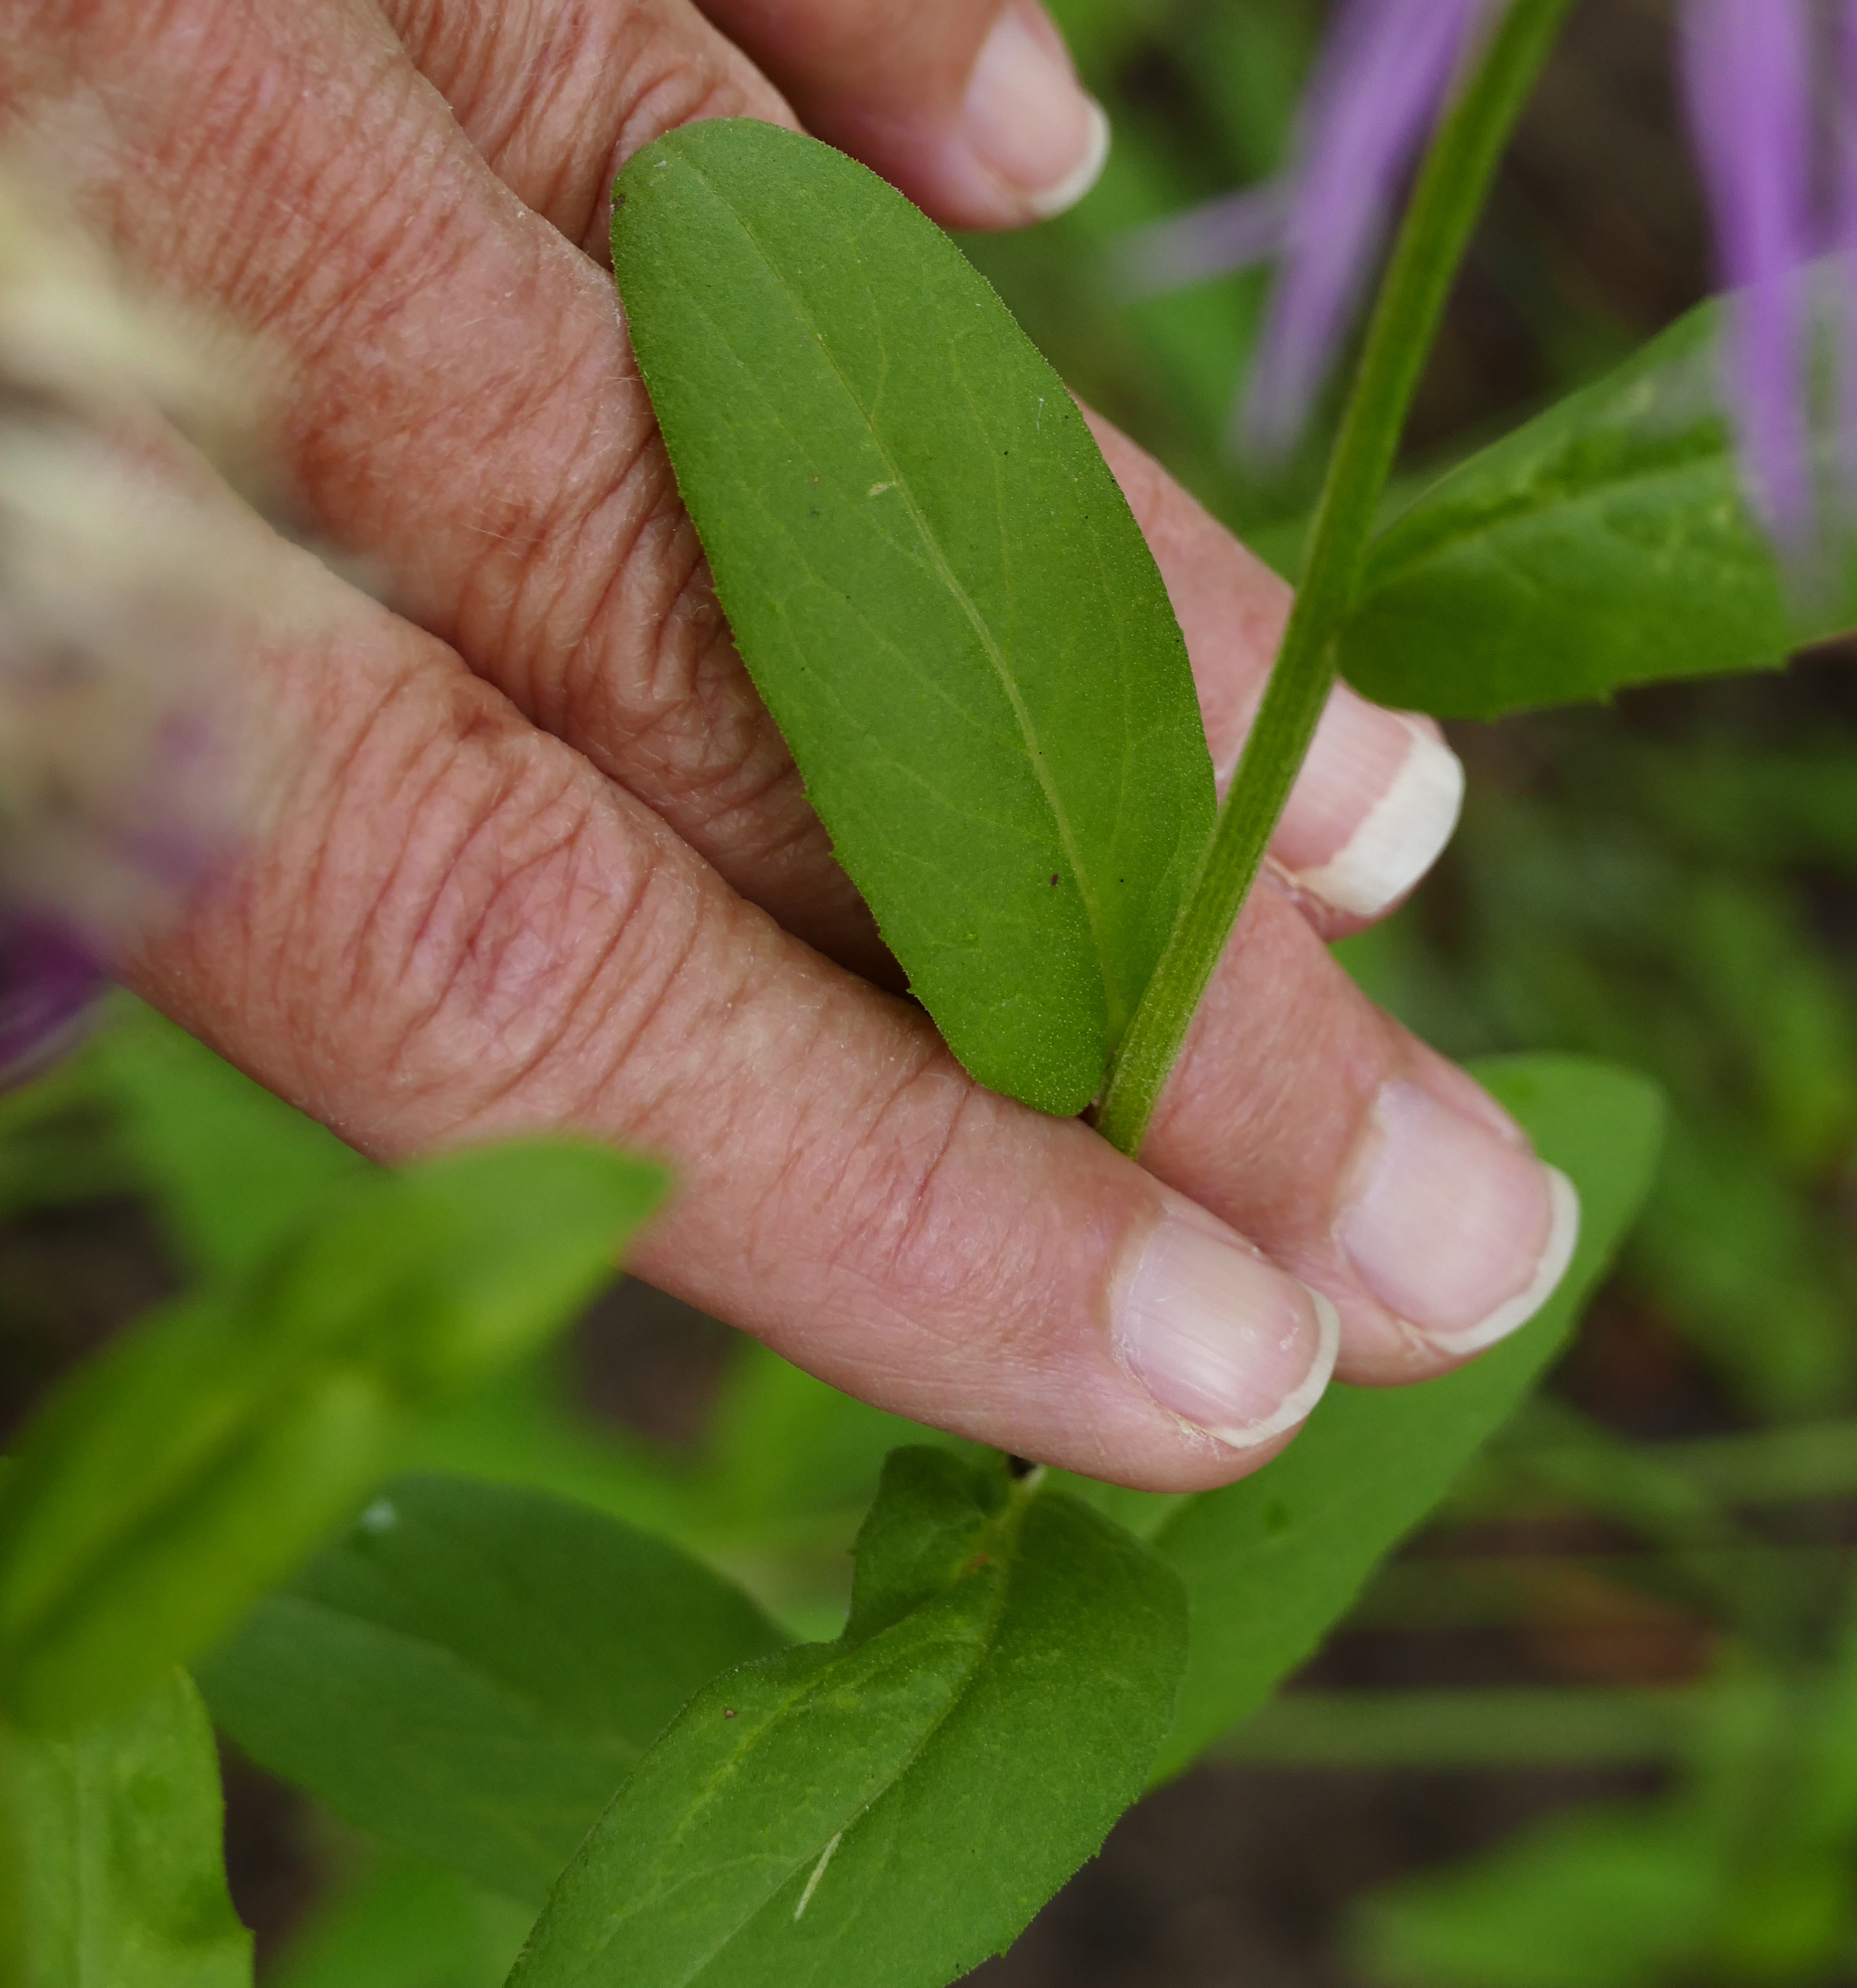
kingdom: Plantae
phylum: Tracheophyta
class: Magnoliopsida
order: Asterales
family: Asteraceae
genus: Plectocephalus
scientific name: Plectocephalus rothrockii
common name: Mexican basketflower
